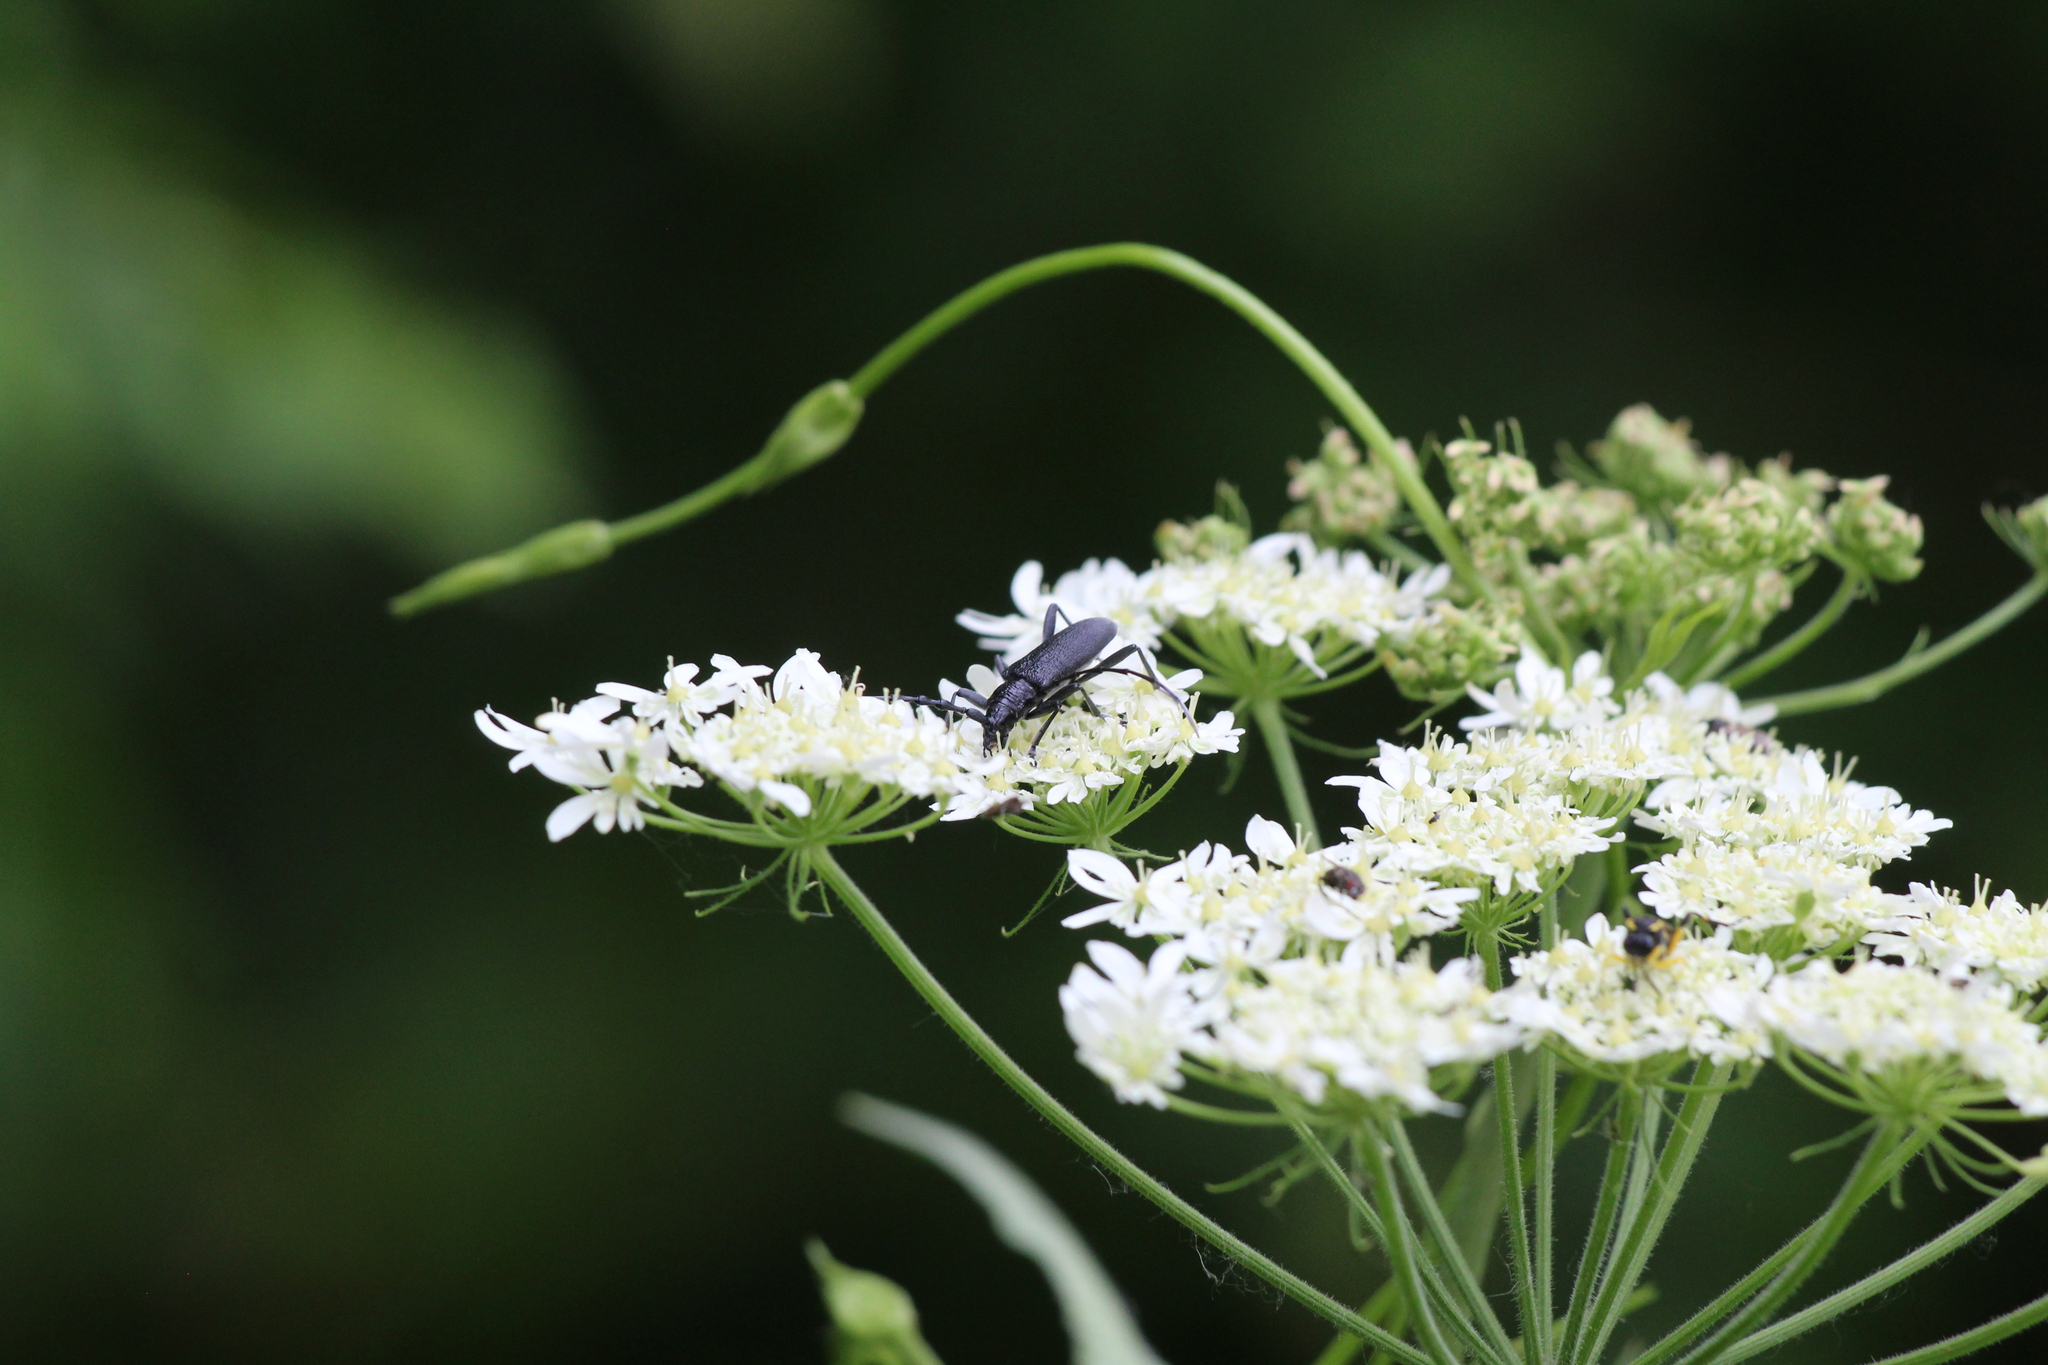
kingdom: Animalia
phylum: Arthropoda
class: Insecta
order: Coleoptera
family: Cerambycidae
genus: Cerambyx
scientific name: Cerambyx scopolii
